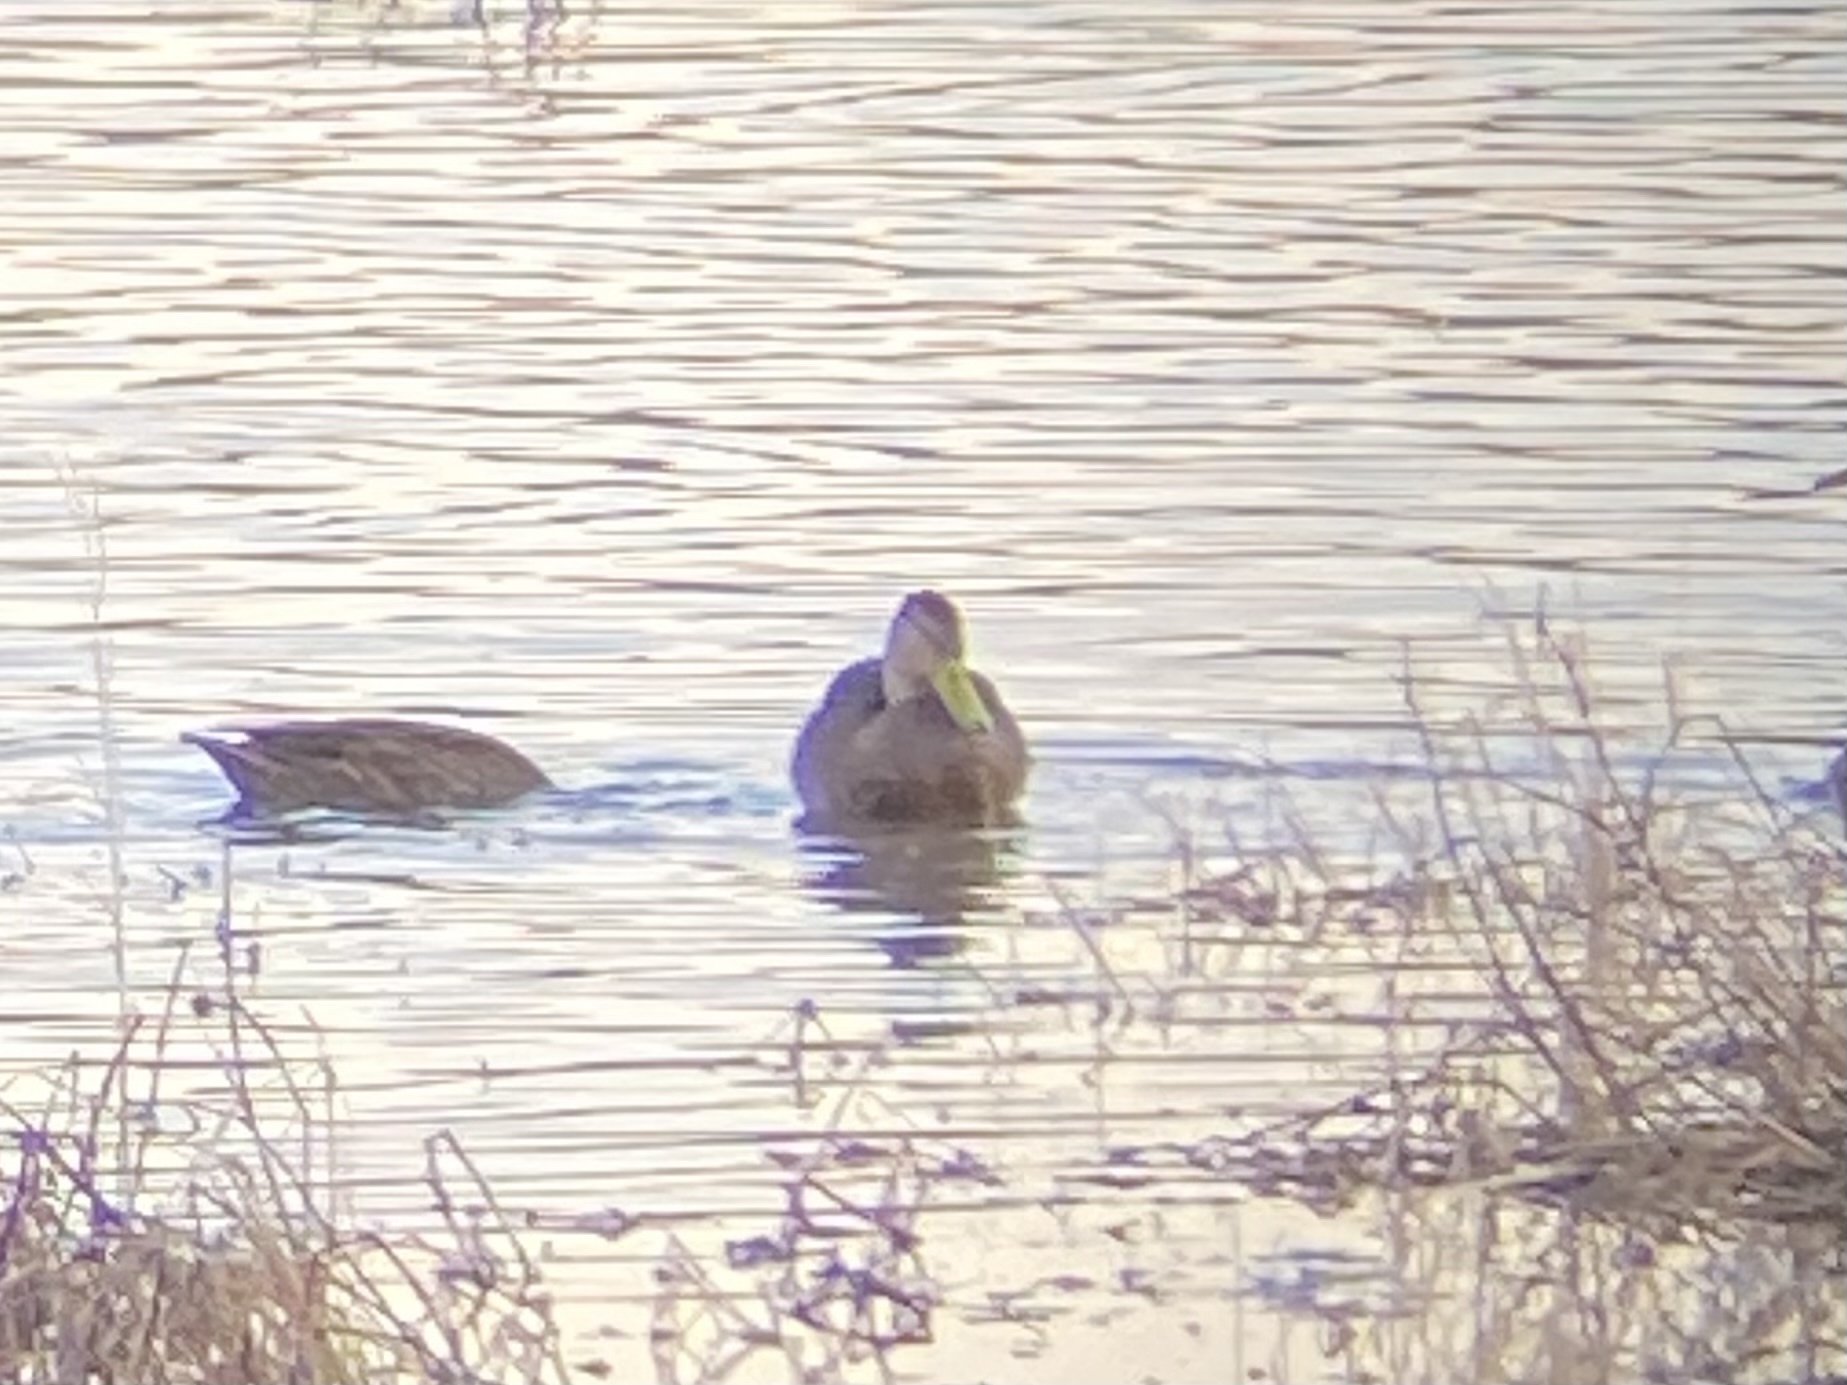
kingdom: Animalia
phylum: Chordata
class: Aves
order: Anseriformes
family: Anatidae
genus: Anas
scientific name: Anas diazi
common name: Mexican duck
